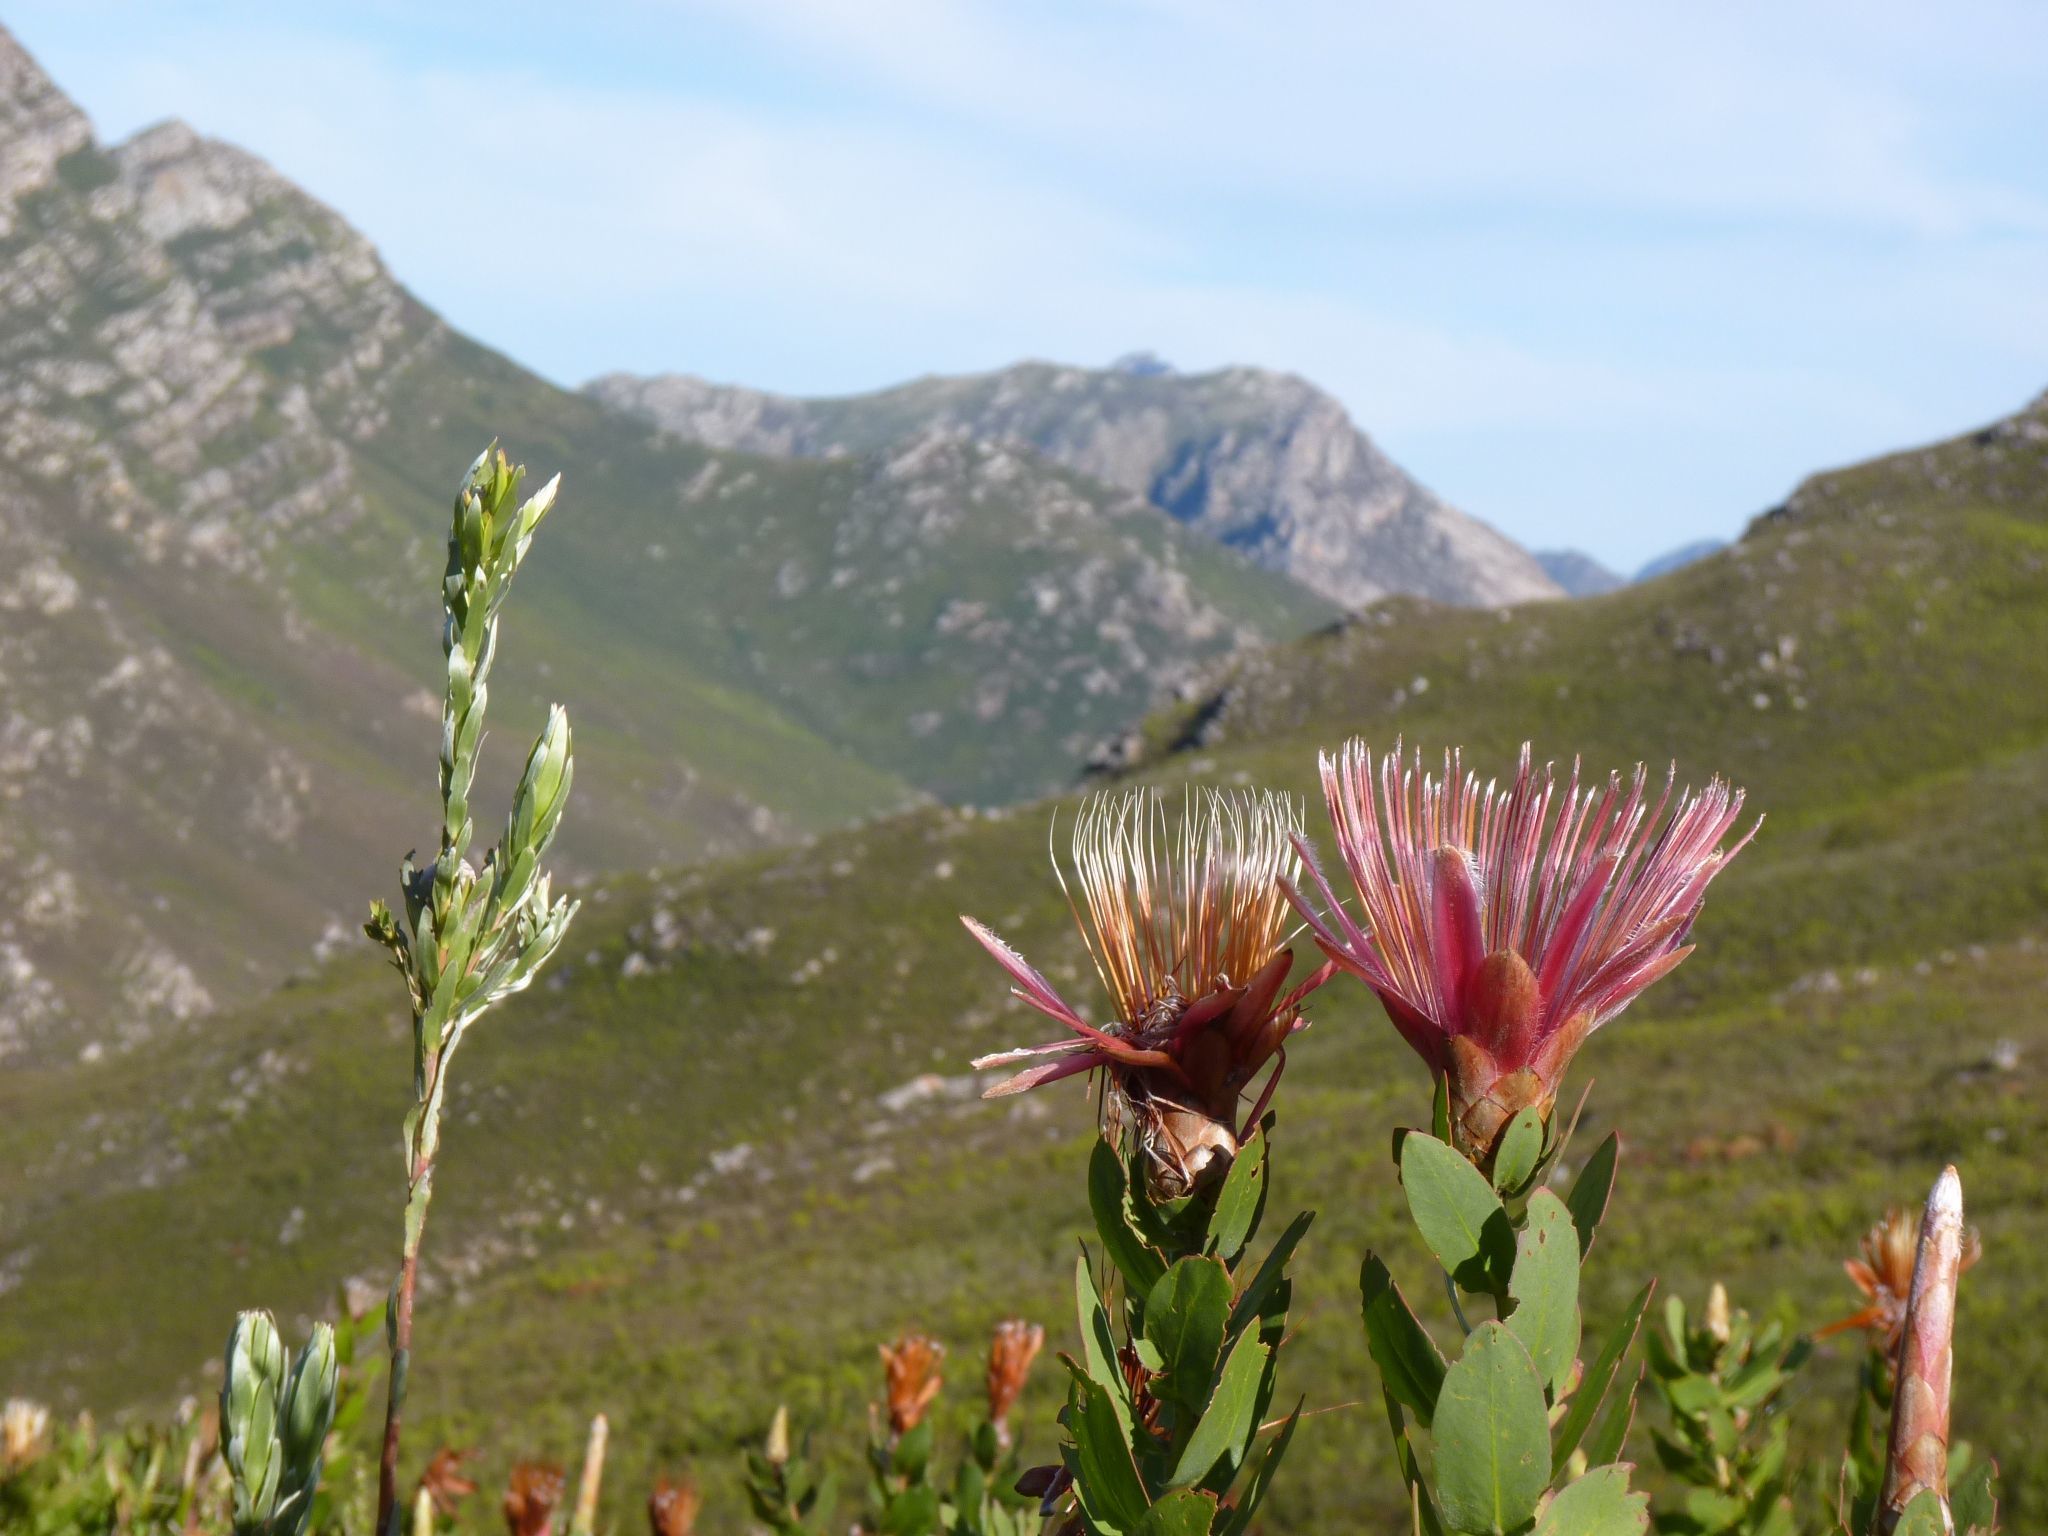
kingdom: Plantae
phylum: Tracheophyta
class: Magnoliopsida
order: Proteales
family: Proteaceae
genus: Protea
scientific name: Protea aurea
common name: Shuttlecock sugarbush
